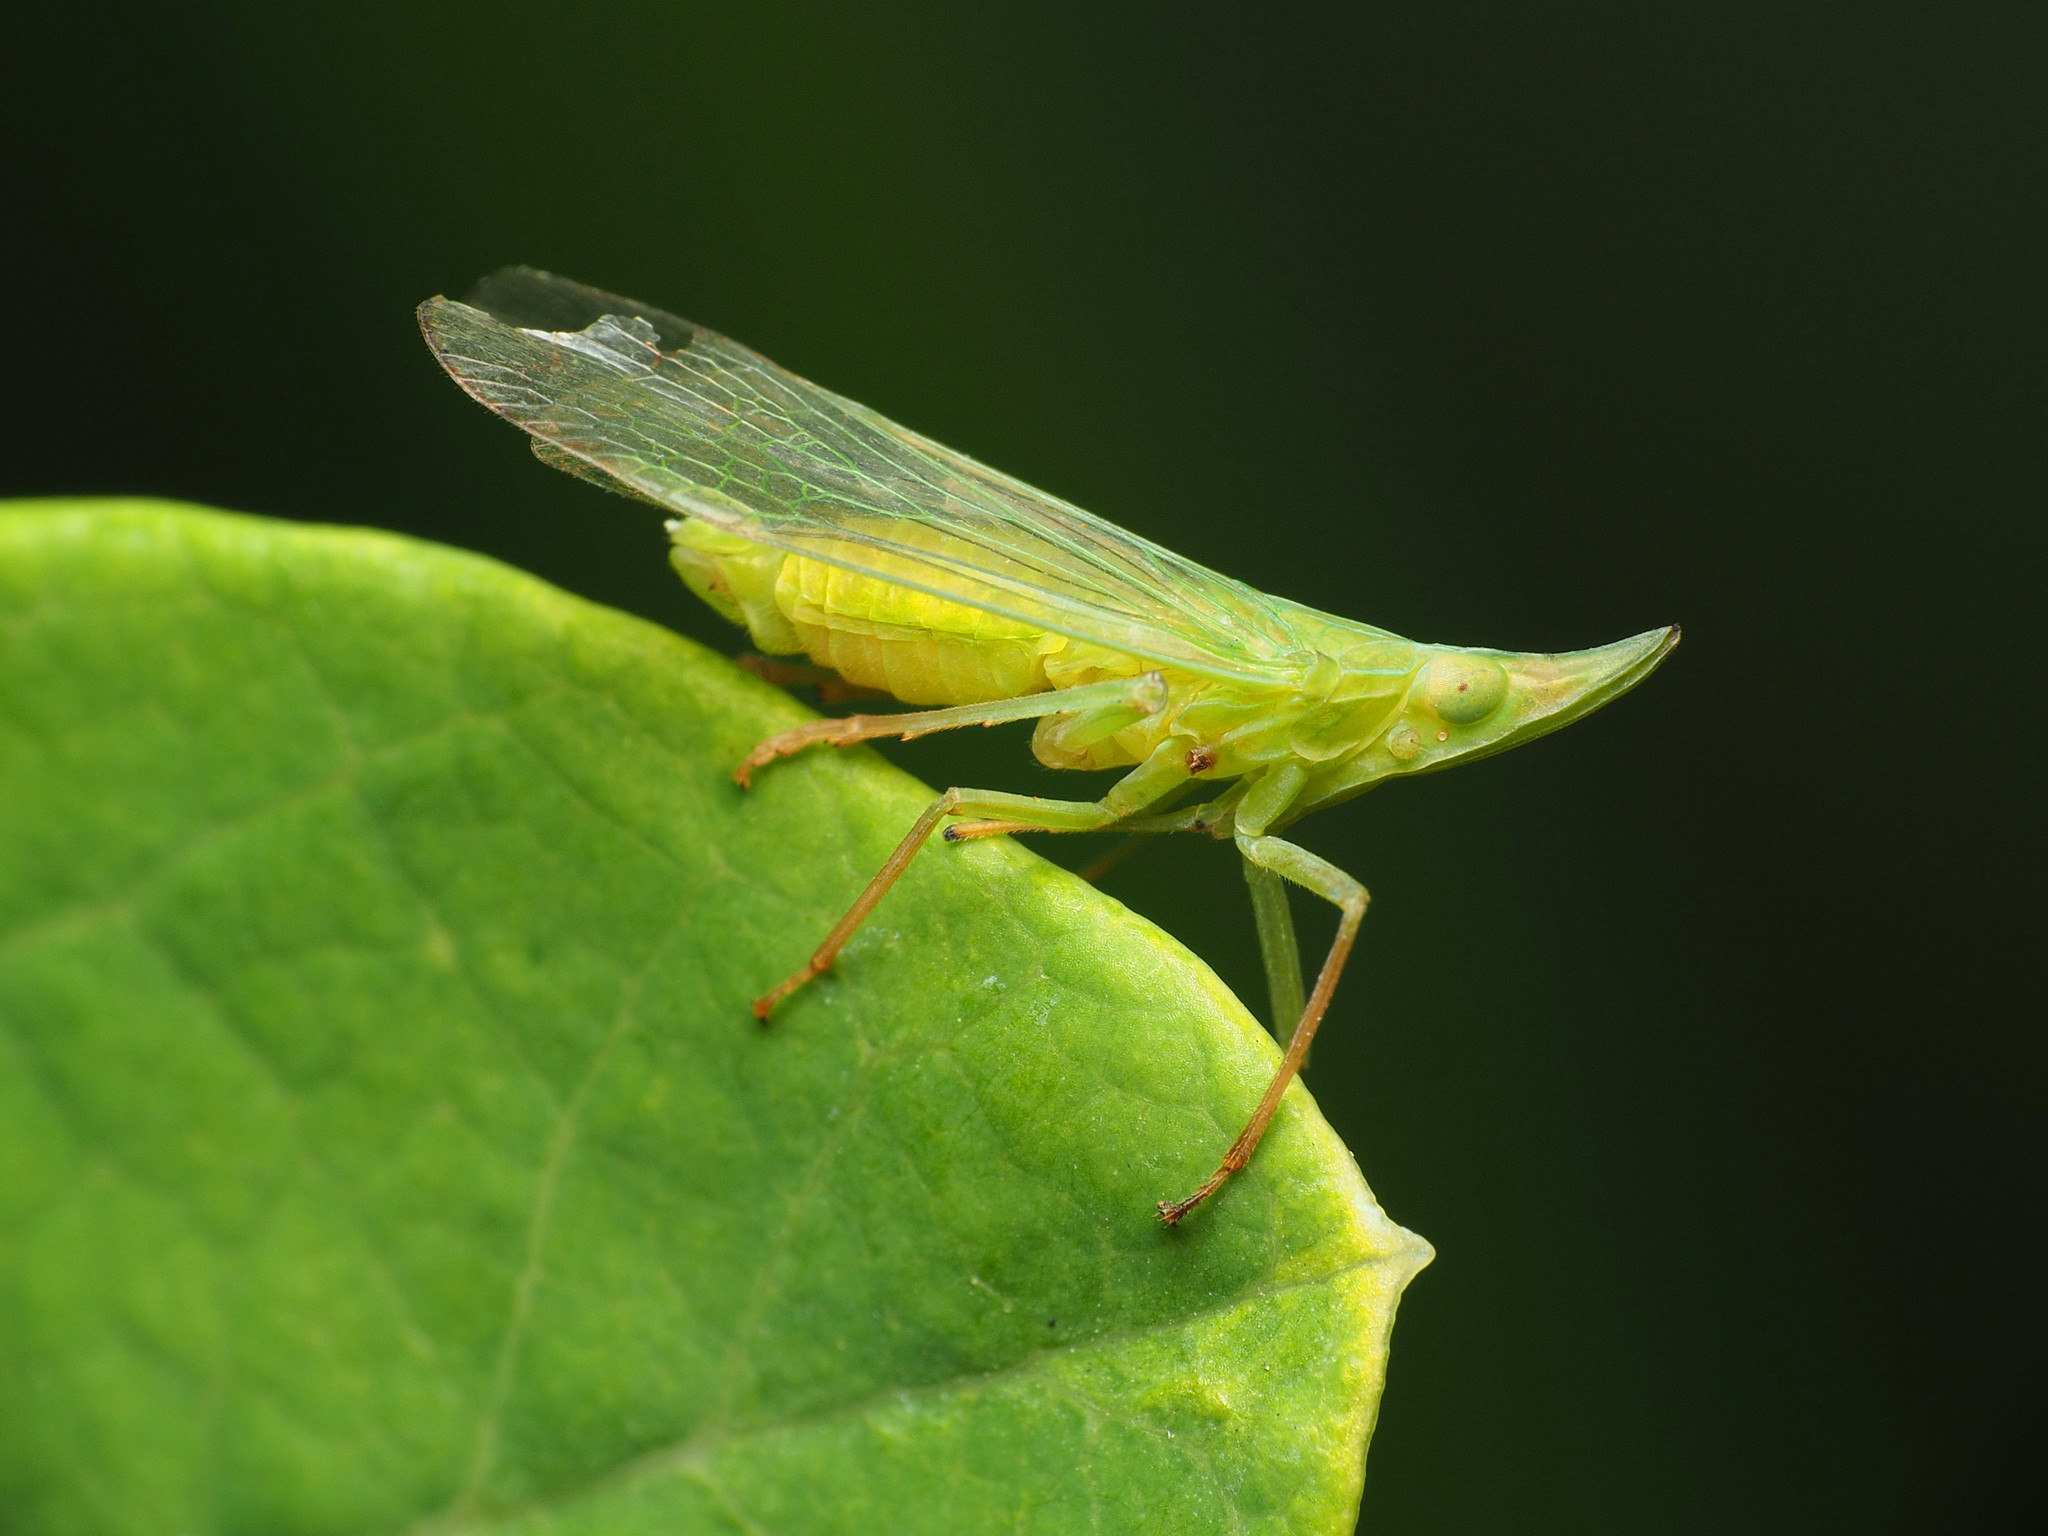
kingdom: Animalia
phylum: Arthropoda
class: Insecta
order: Hemiptera
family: Dictyopharidae
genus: Rhynchomitra
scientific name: Rhynchomitra microrhina
